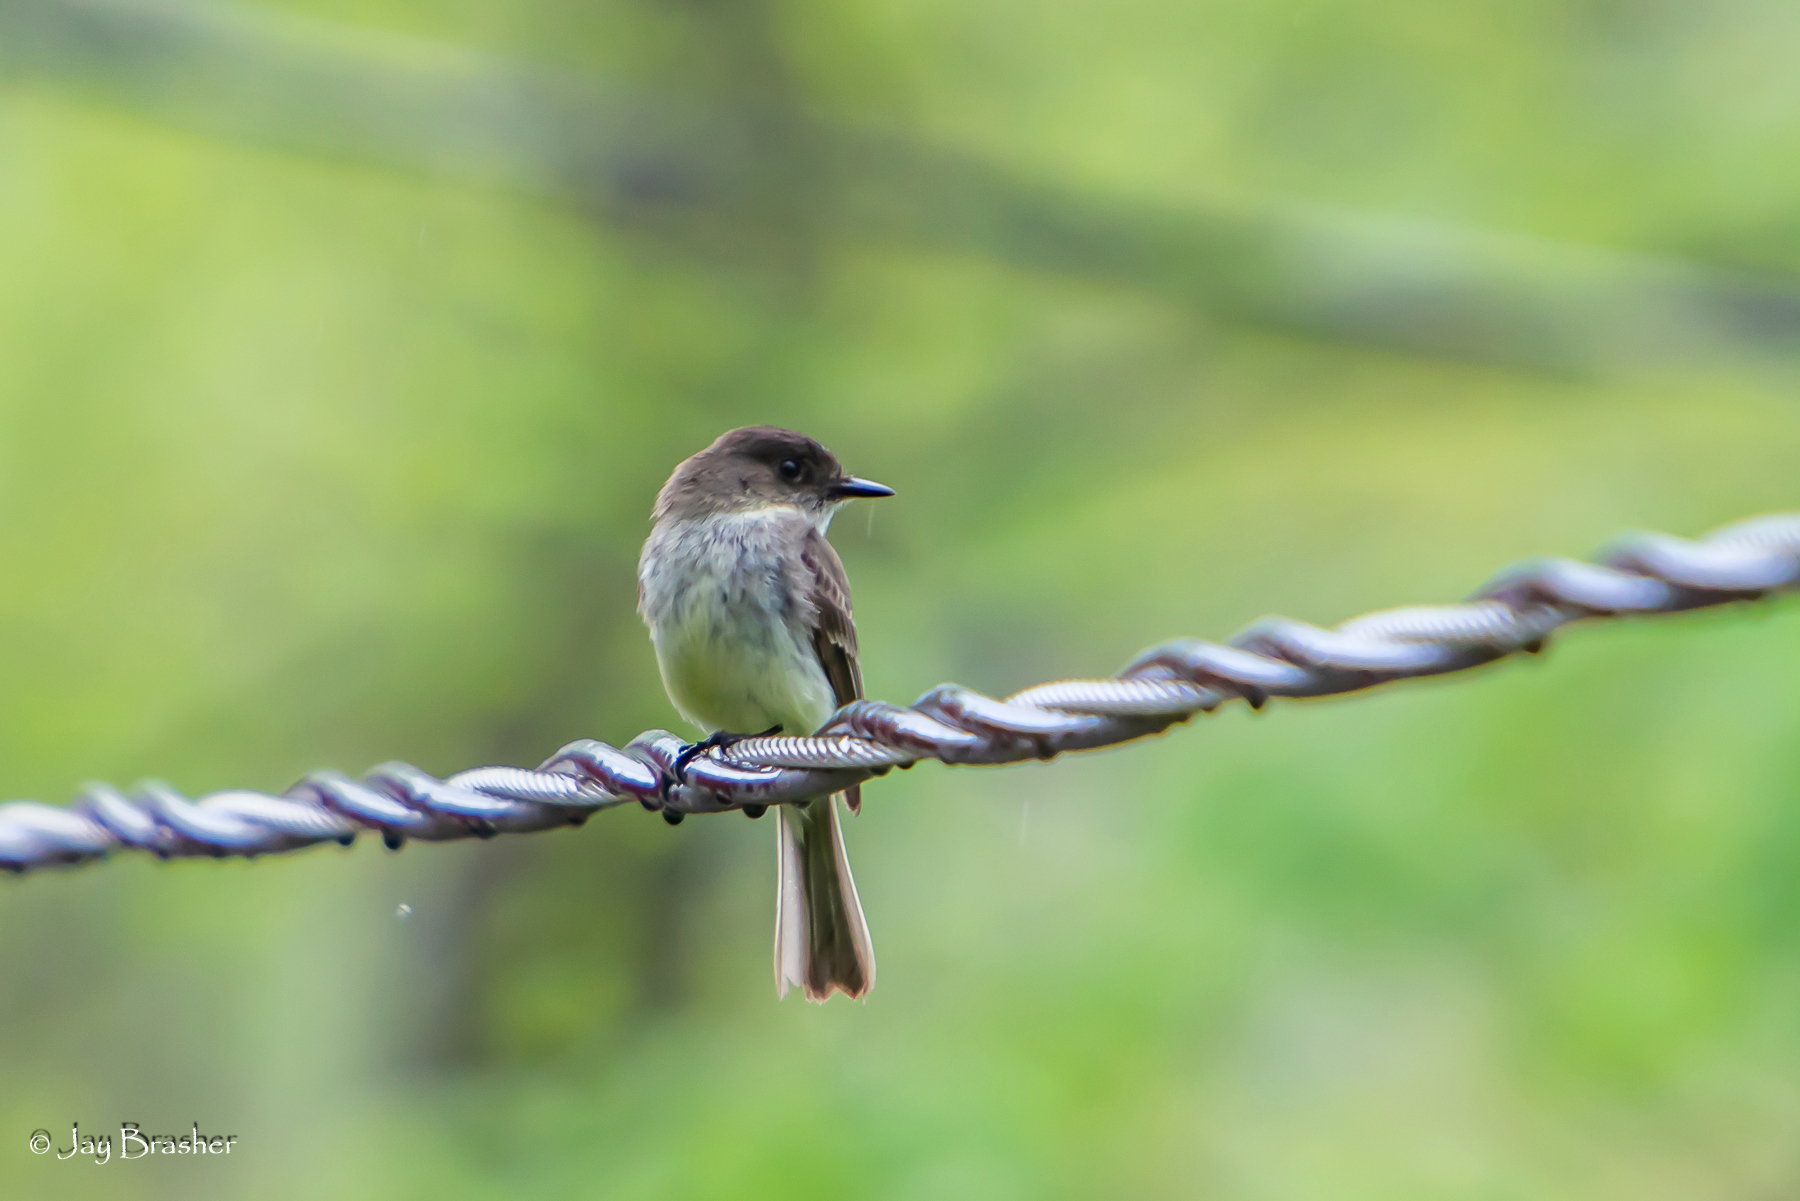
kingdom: Animalia
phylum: Chordata
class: Aves
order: Passeriformes
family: Tyrannidae
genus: Sayornis
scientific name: Sayornis phoebe
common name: Eastern phoebe
